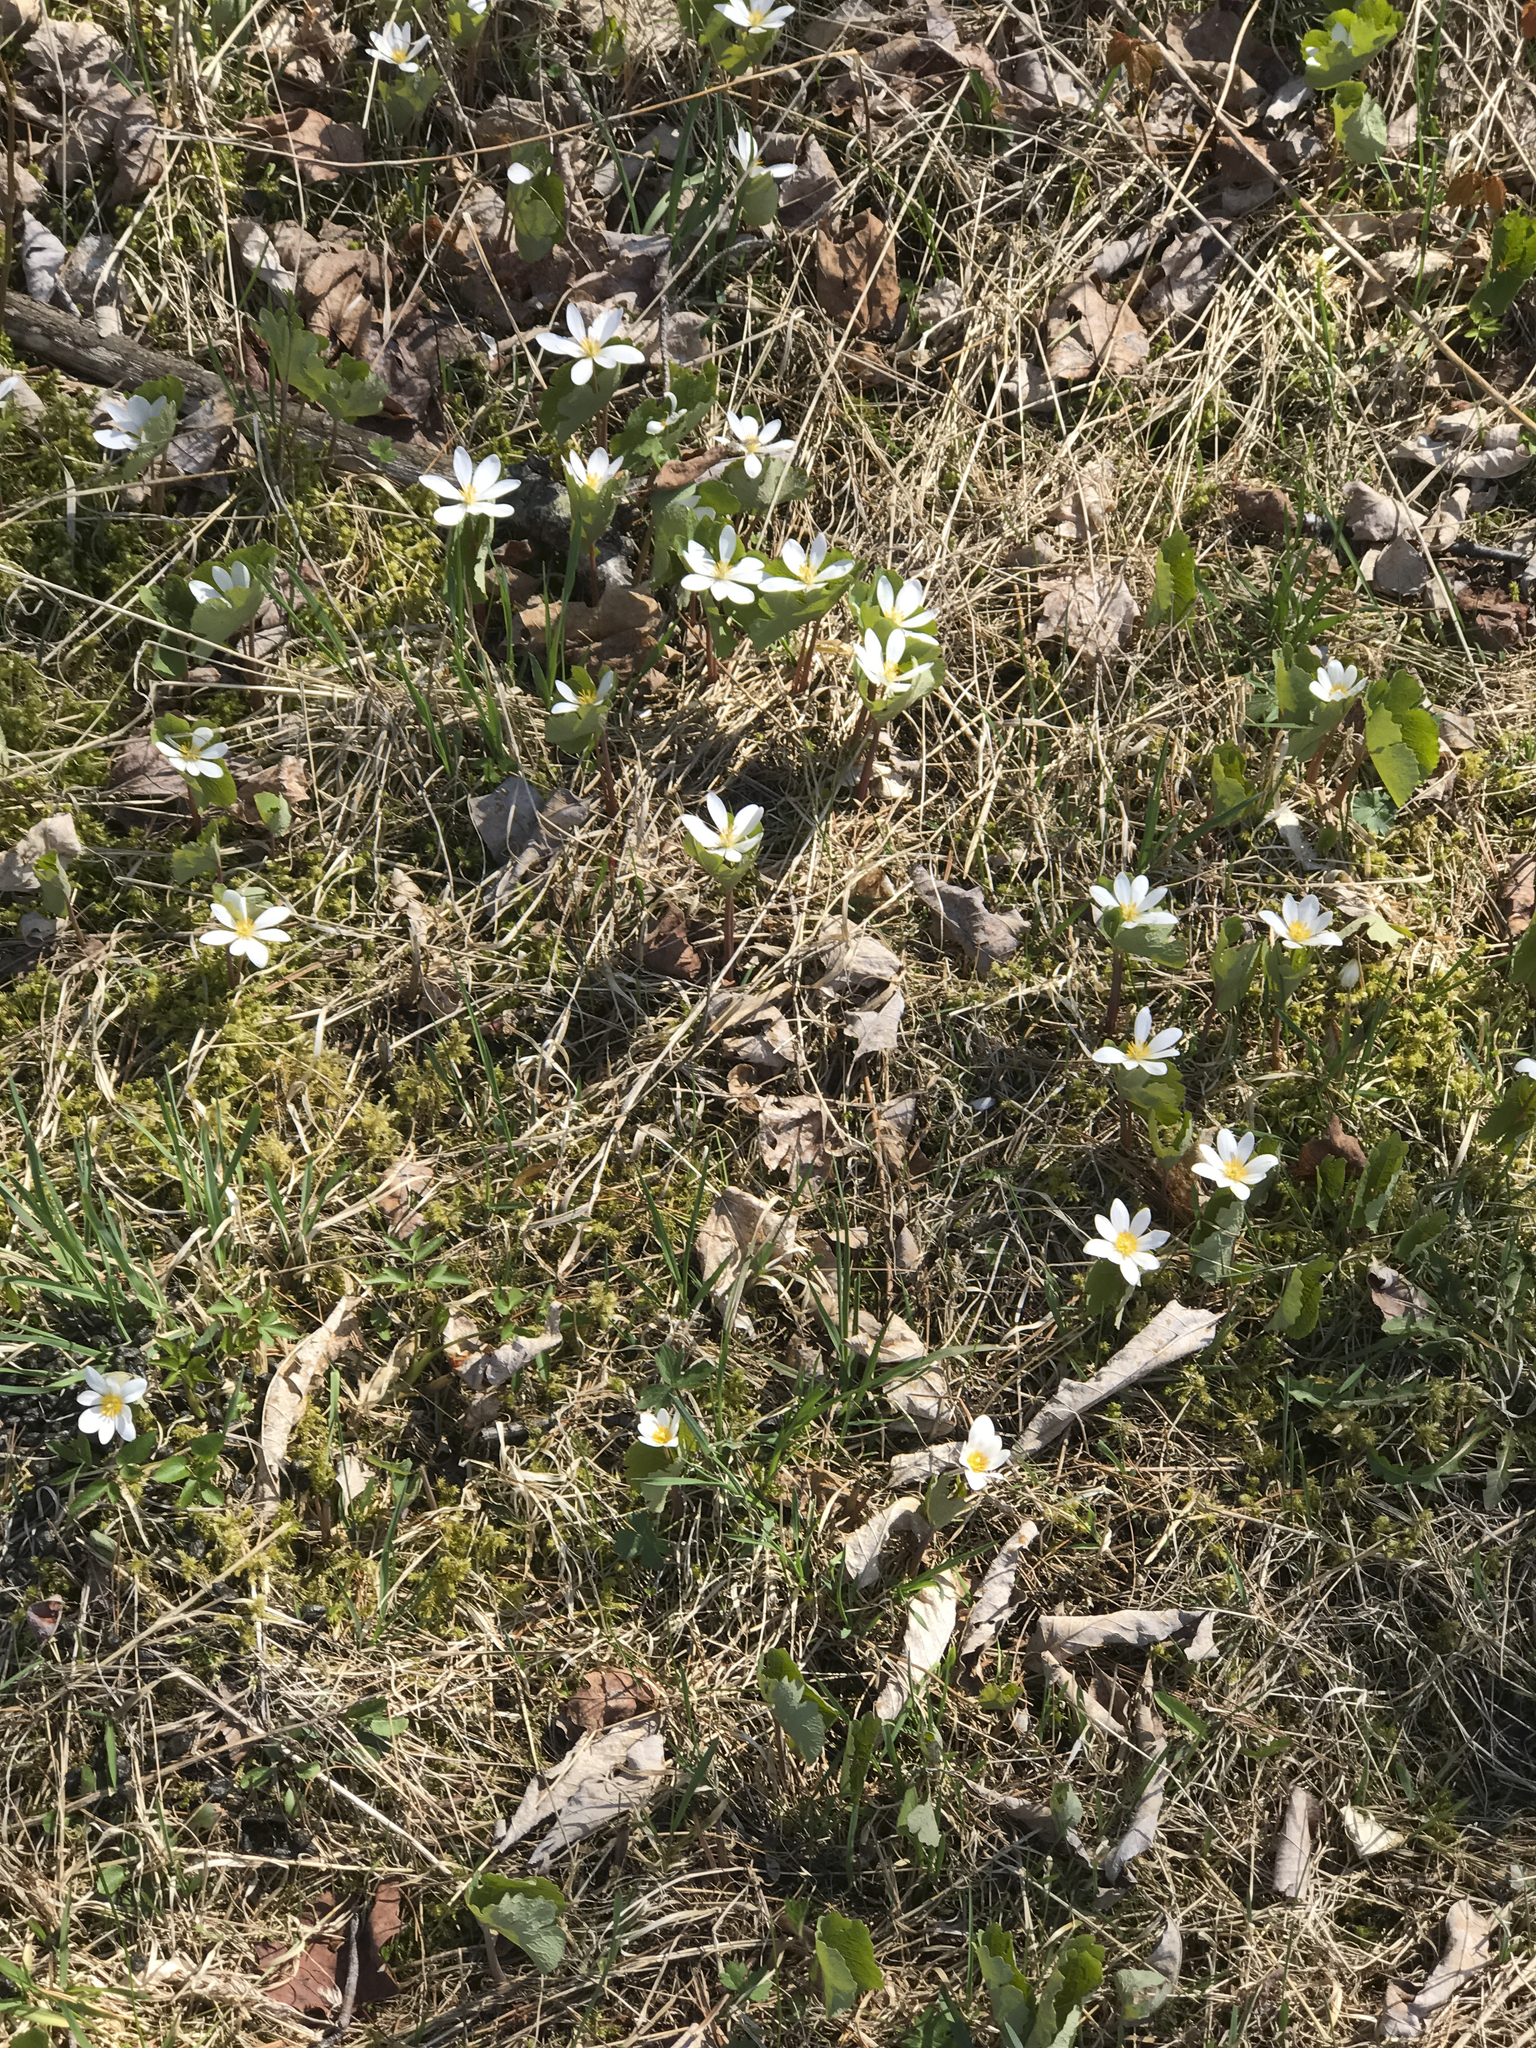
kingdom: Plantae
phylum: Tracheophyta
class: Magnoliopsida
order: Ranunculales
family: Papaveraceae
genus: Sanguinaria
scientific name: Sanguinaria canadensis
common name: Bloodroot
